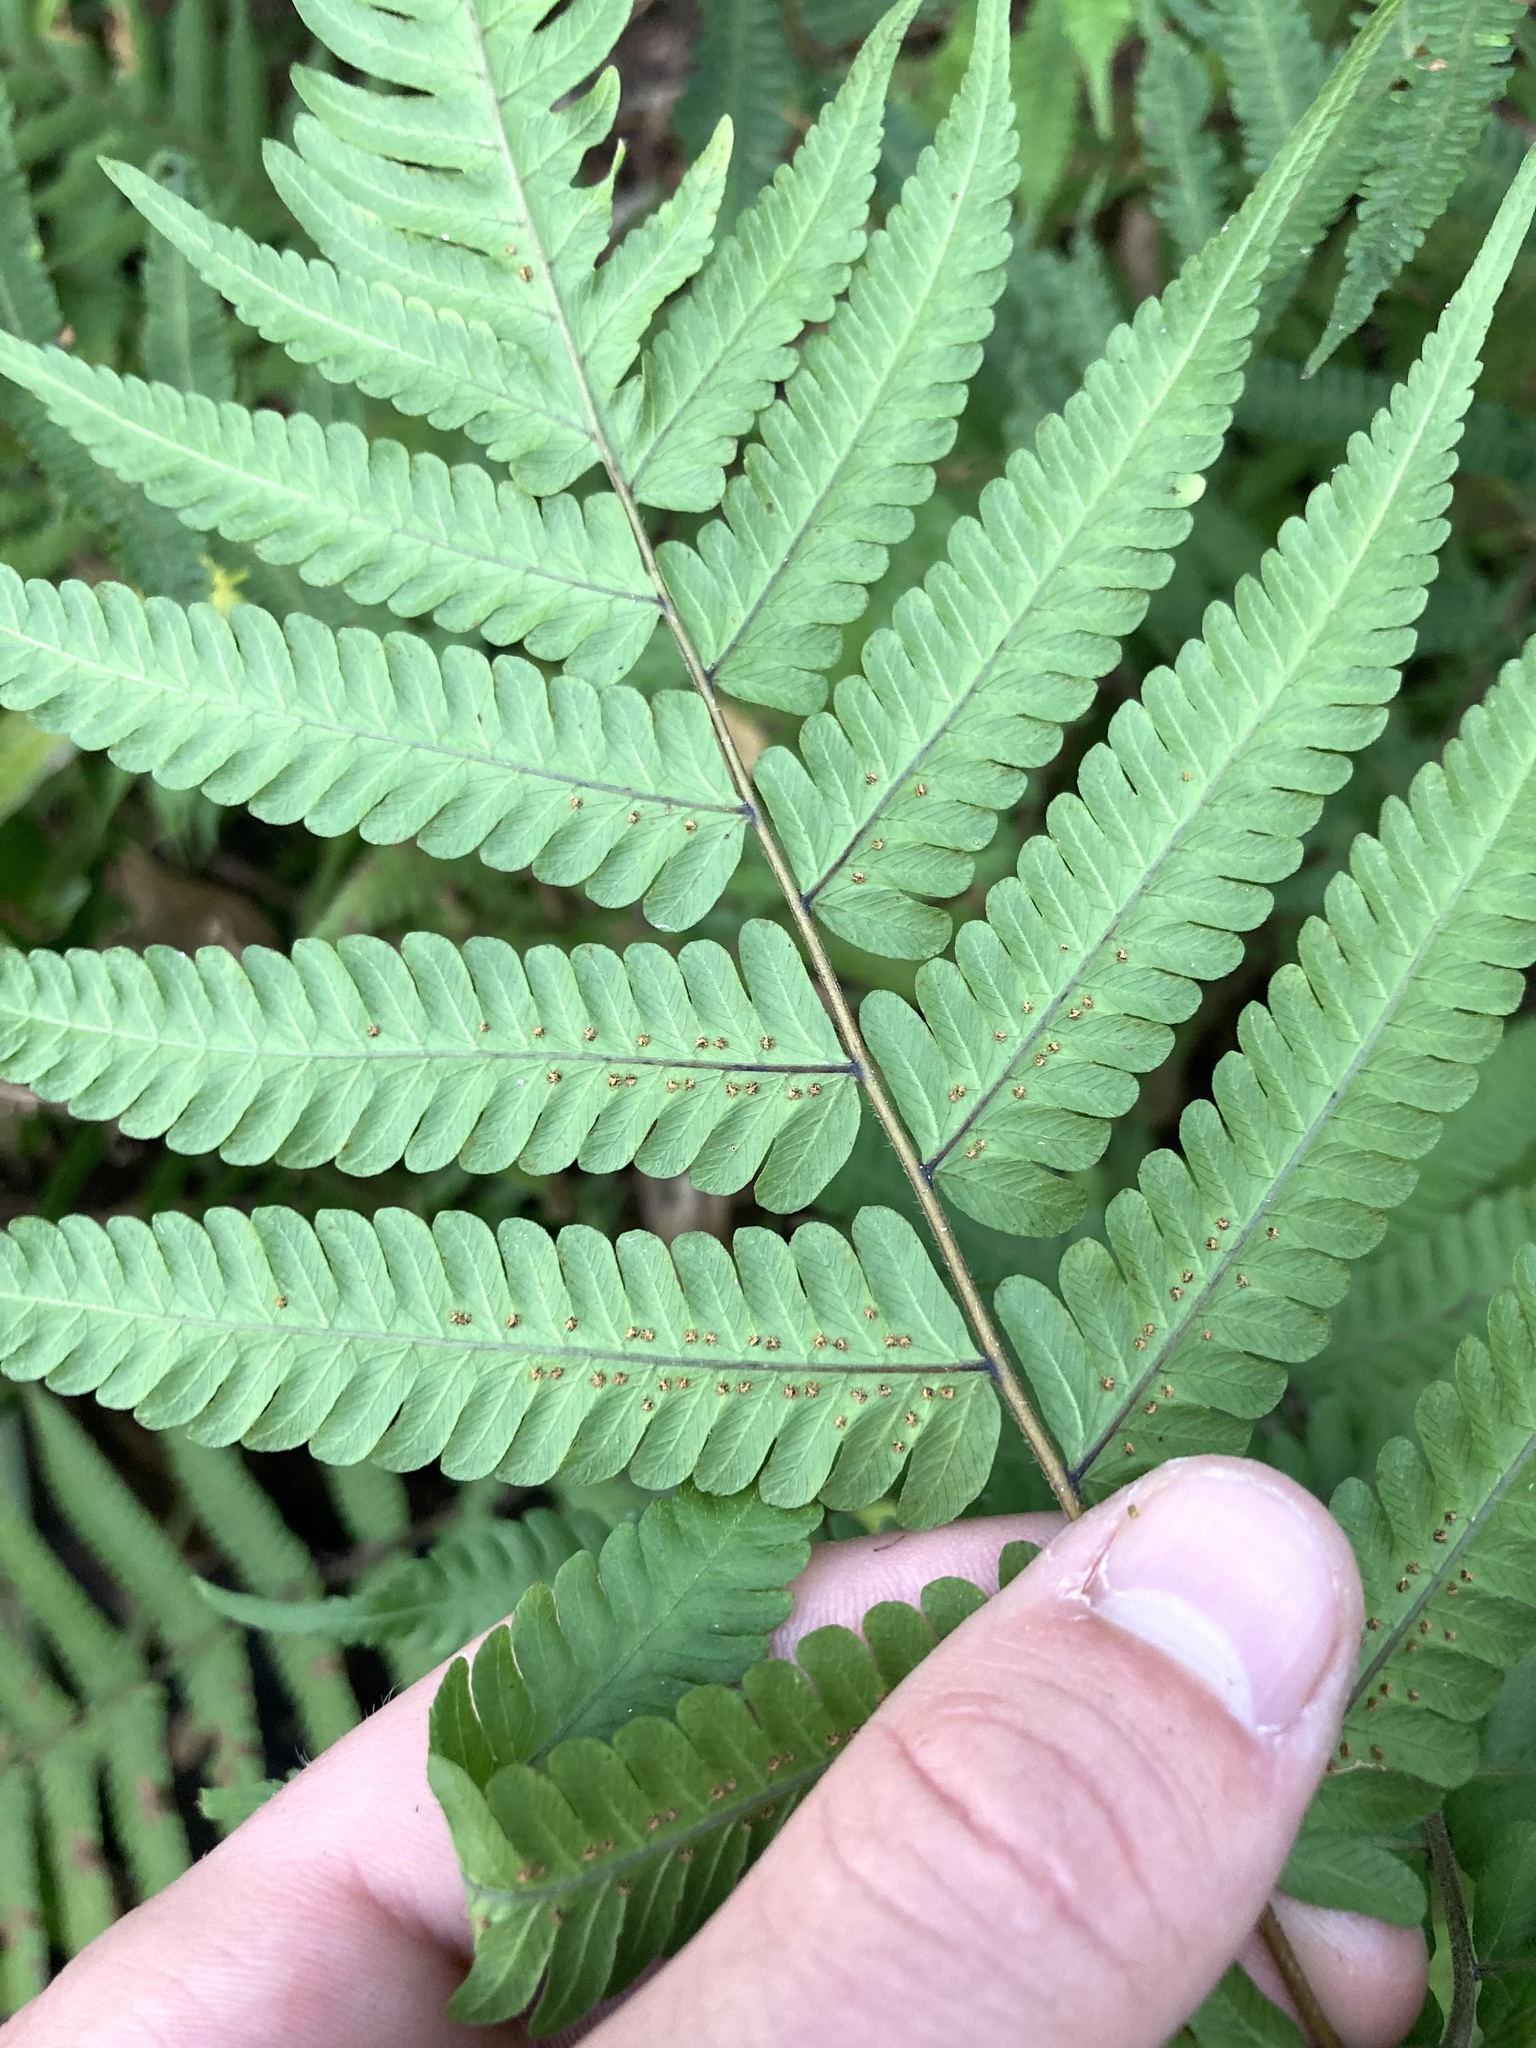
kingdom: Plantae
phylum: Tracheophyta
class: Polypodiopsida
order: Polypodiales
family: Thelypteridaceae
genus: Christella
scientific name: Christella dentata
